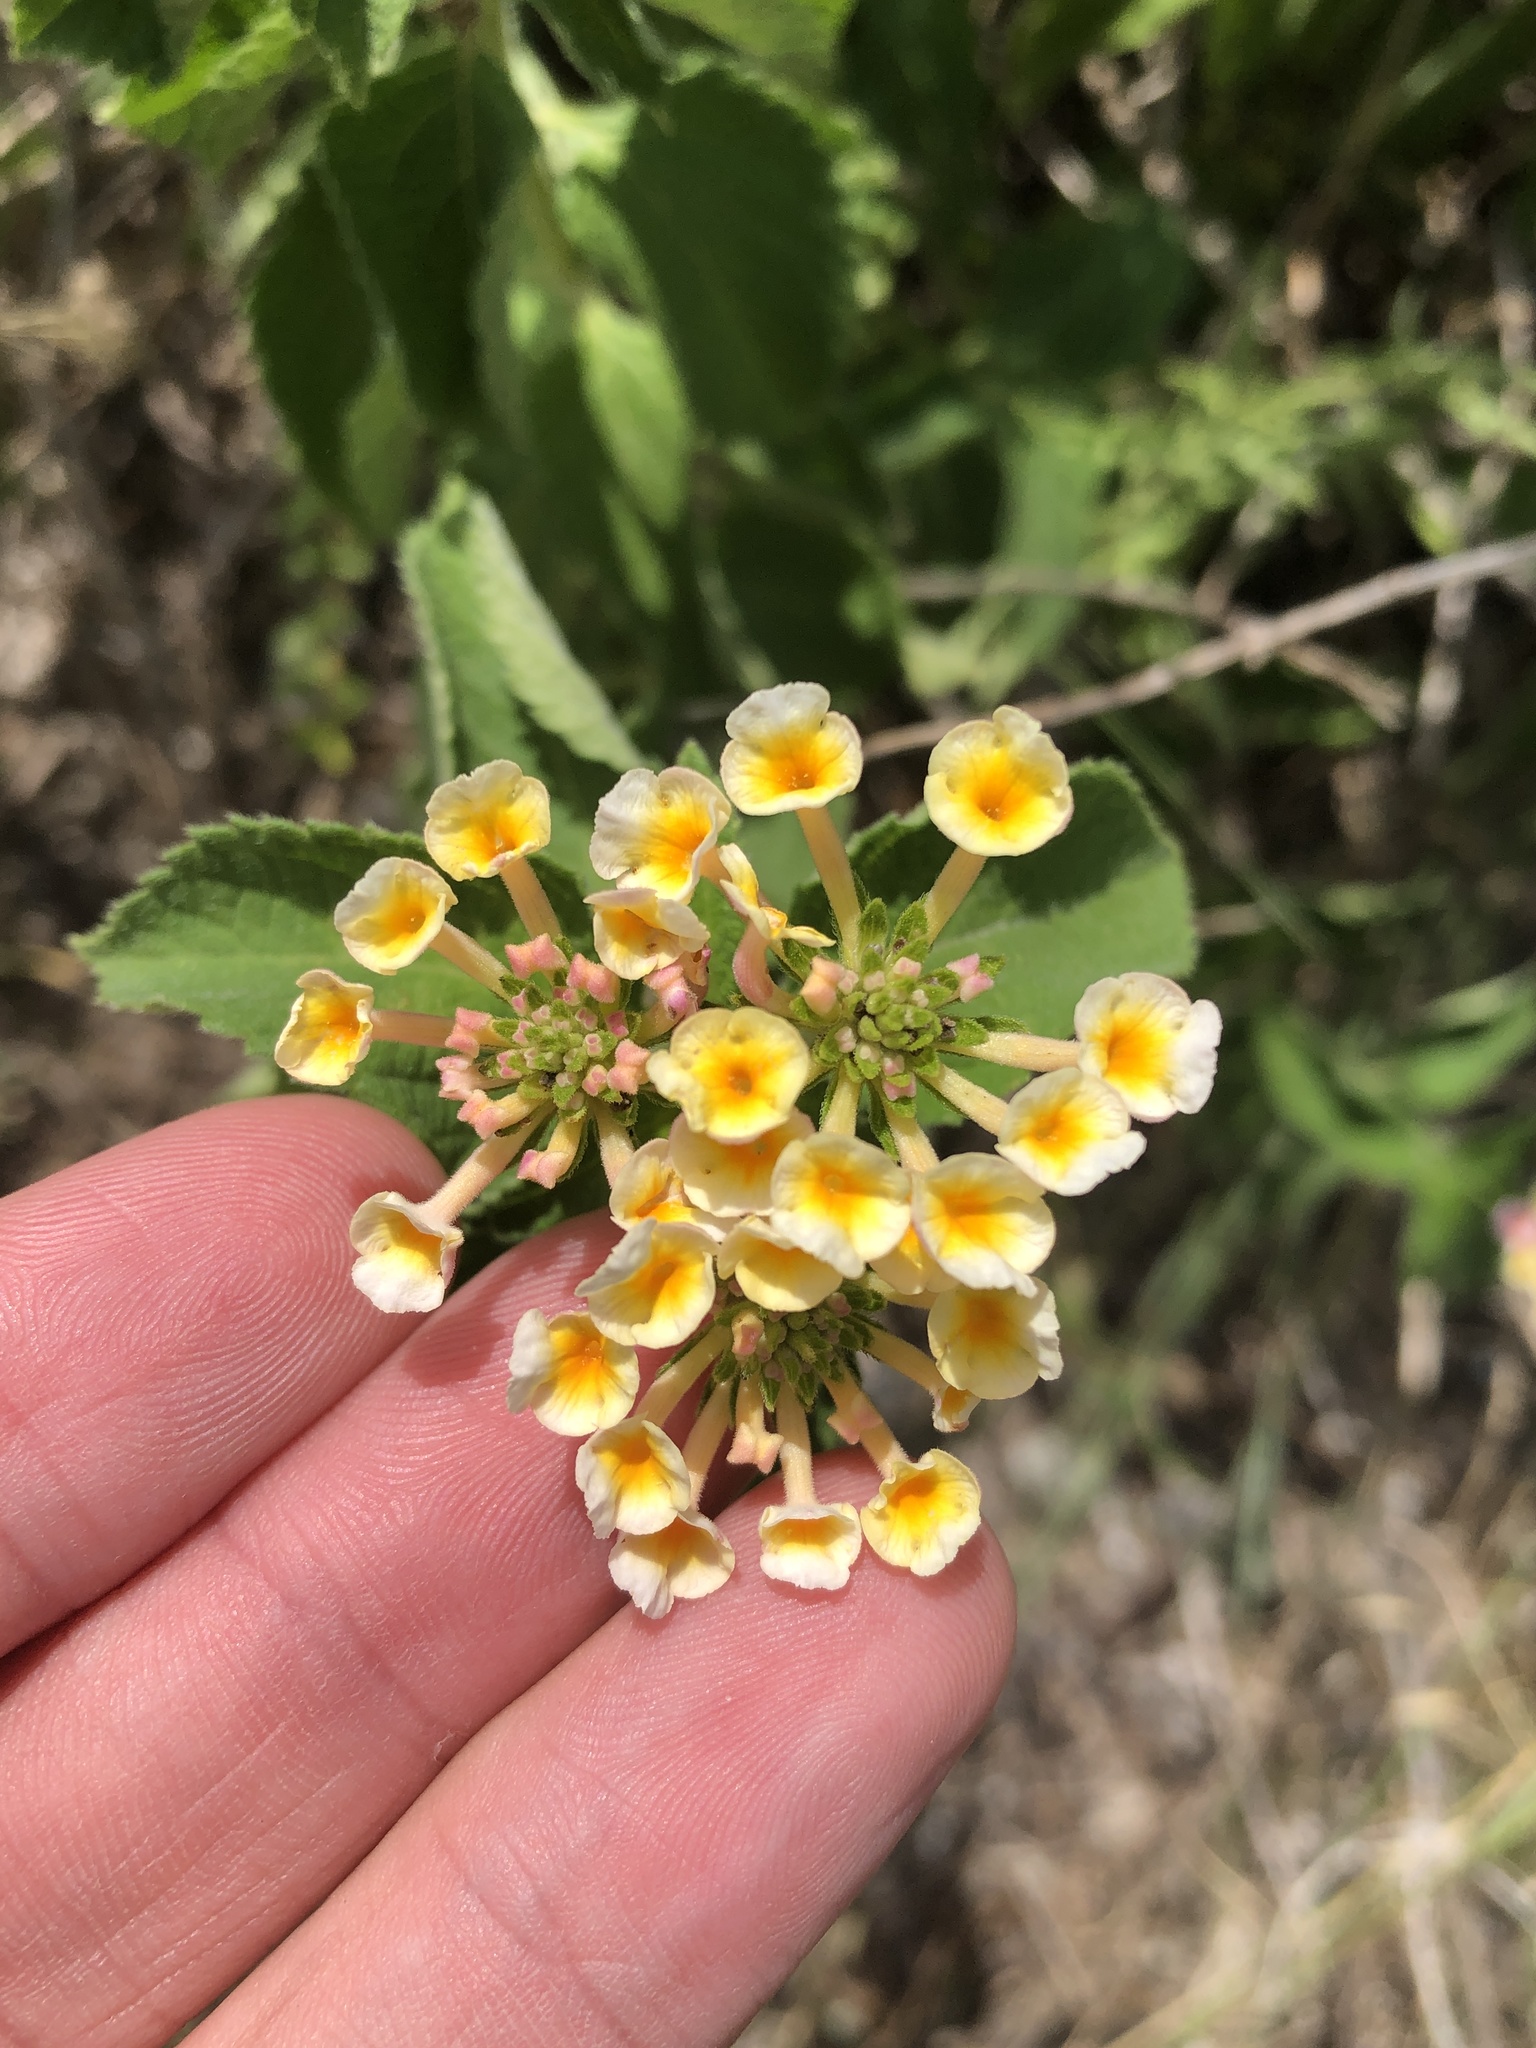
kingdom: Plantae
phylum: Tracheophyta
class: Magnoliopsida
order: Lamiales
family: Verbenaceae
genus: Lantana
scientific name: Lantana strigocamara
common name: Lantana
